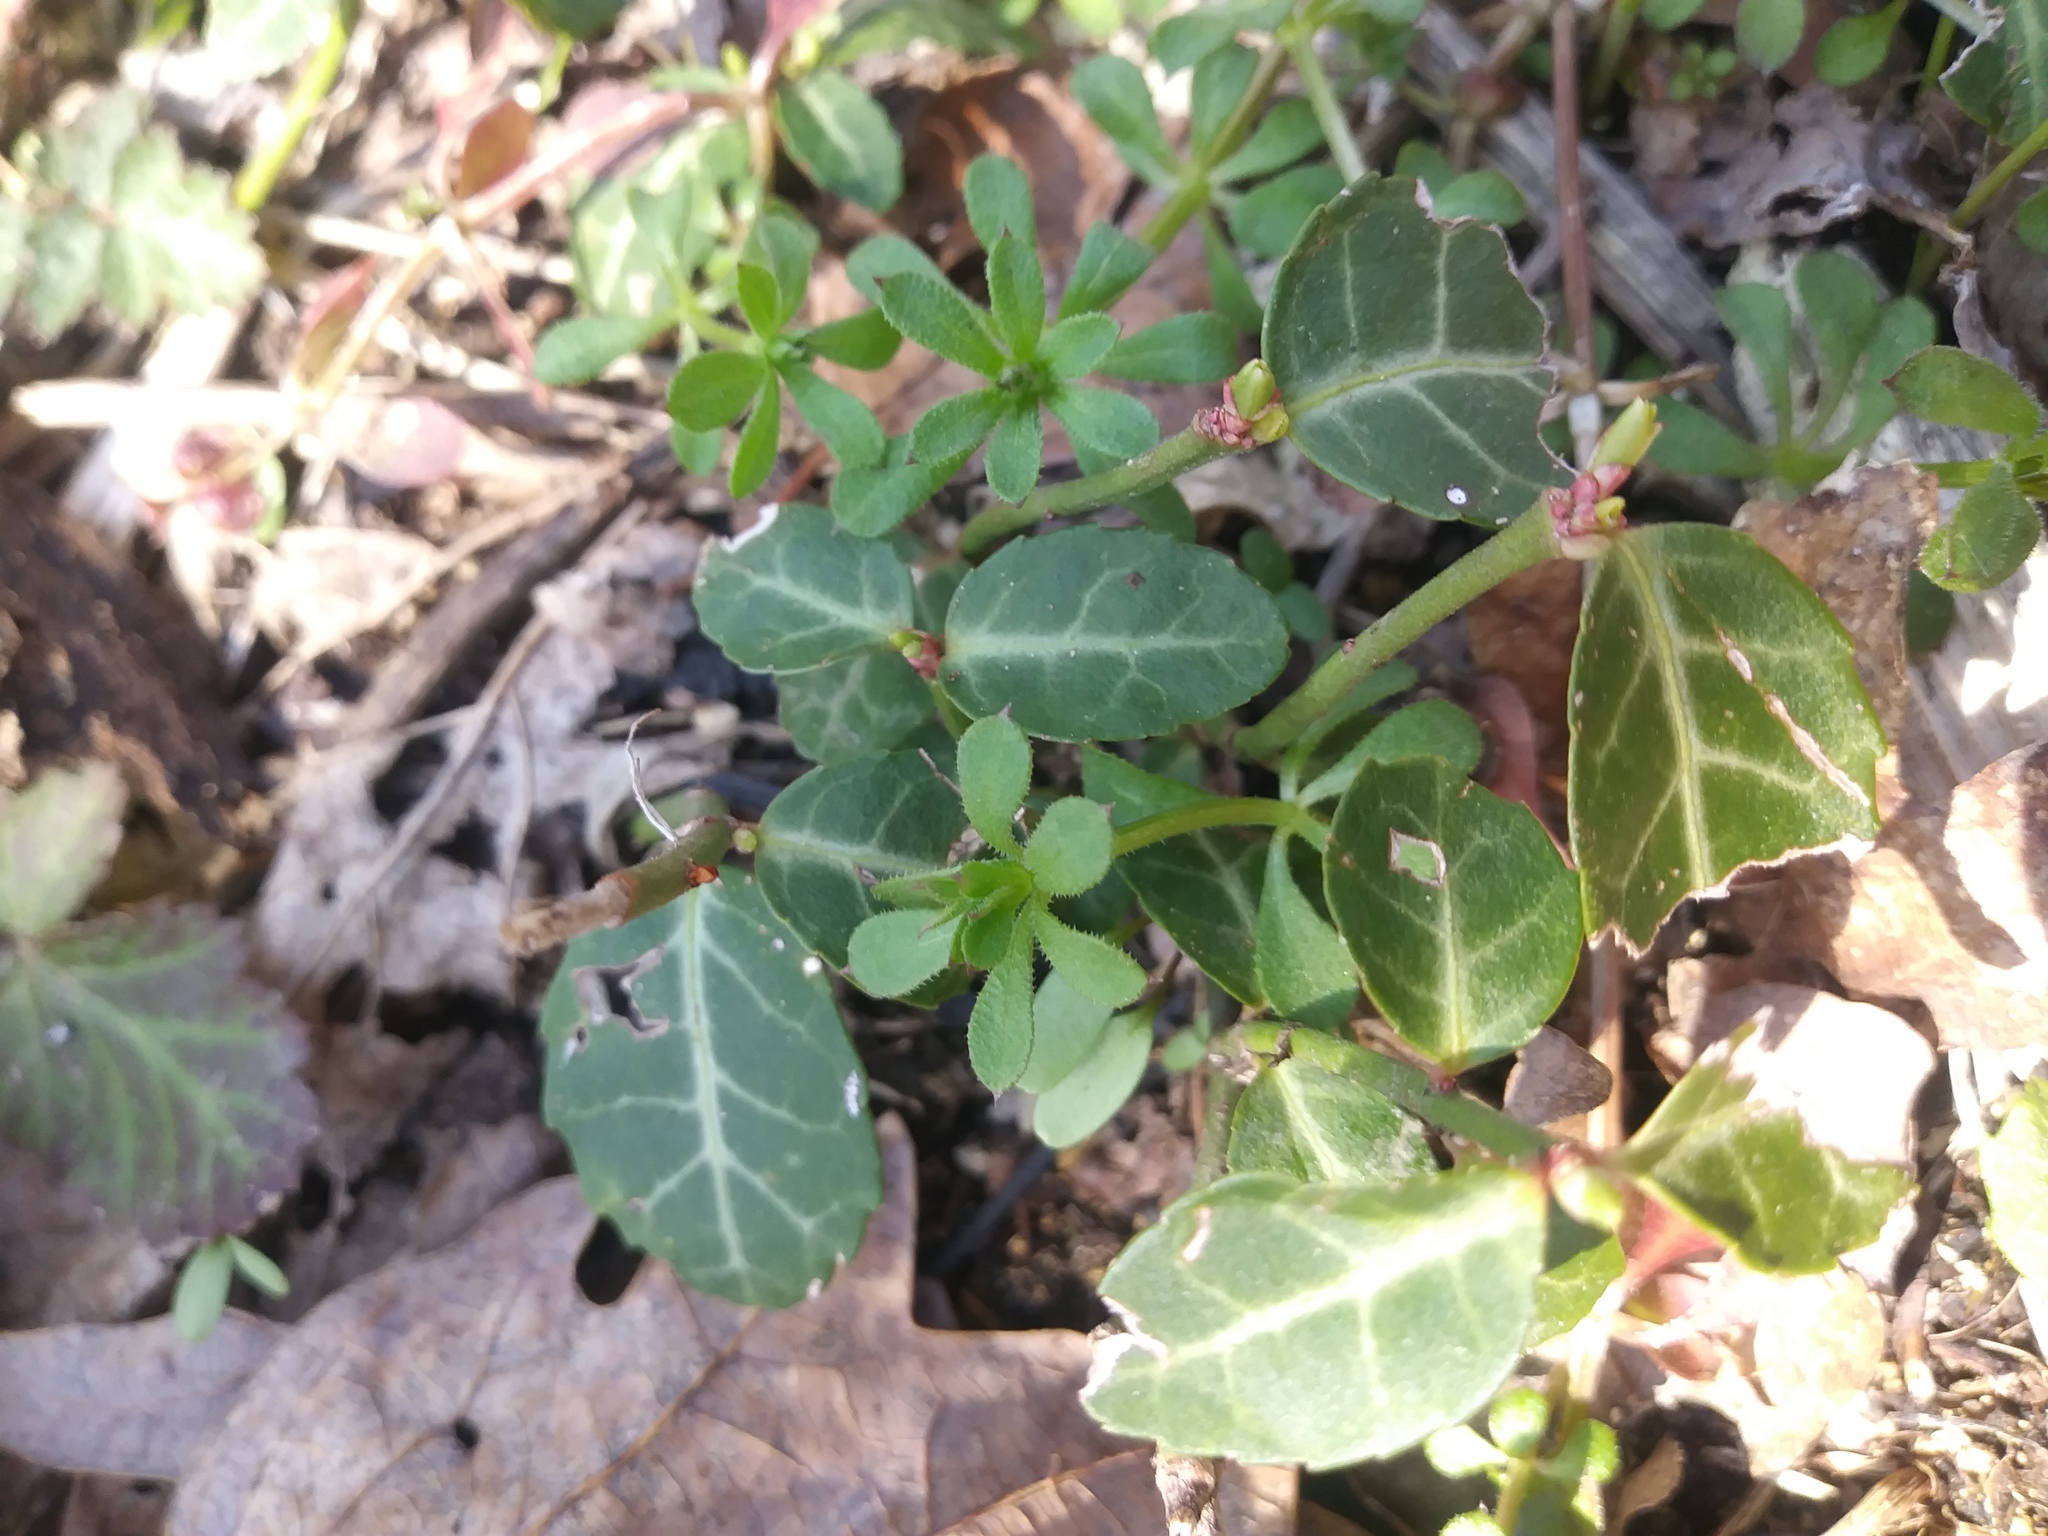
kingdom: Plantae
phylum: Tracheophyta
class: Magnoliopsida
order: Celastrales
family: Celastraceae
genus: Euonymus
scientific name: Euonymus fortunei
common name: Climbing euonymus
